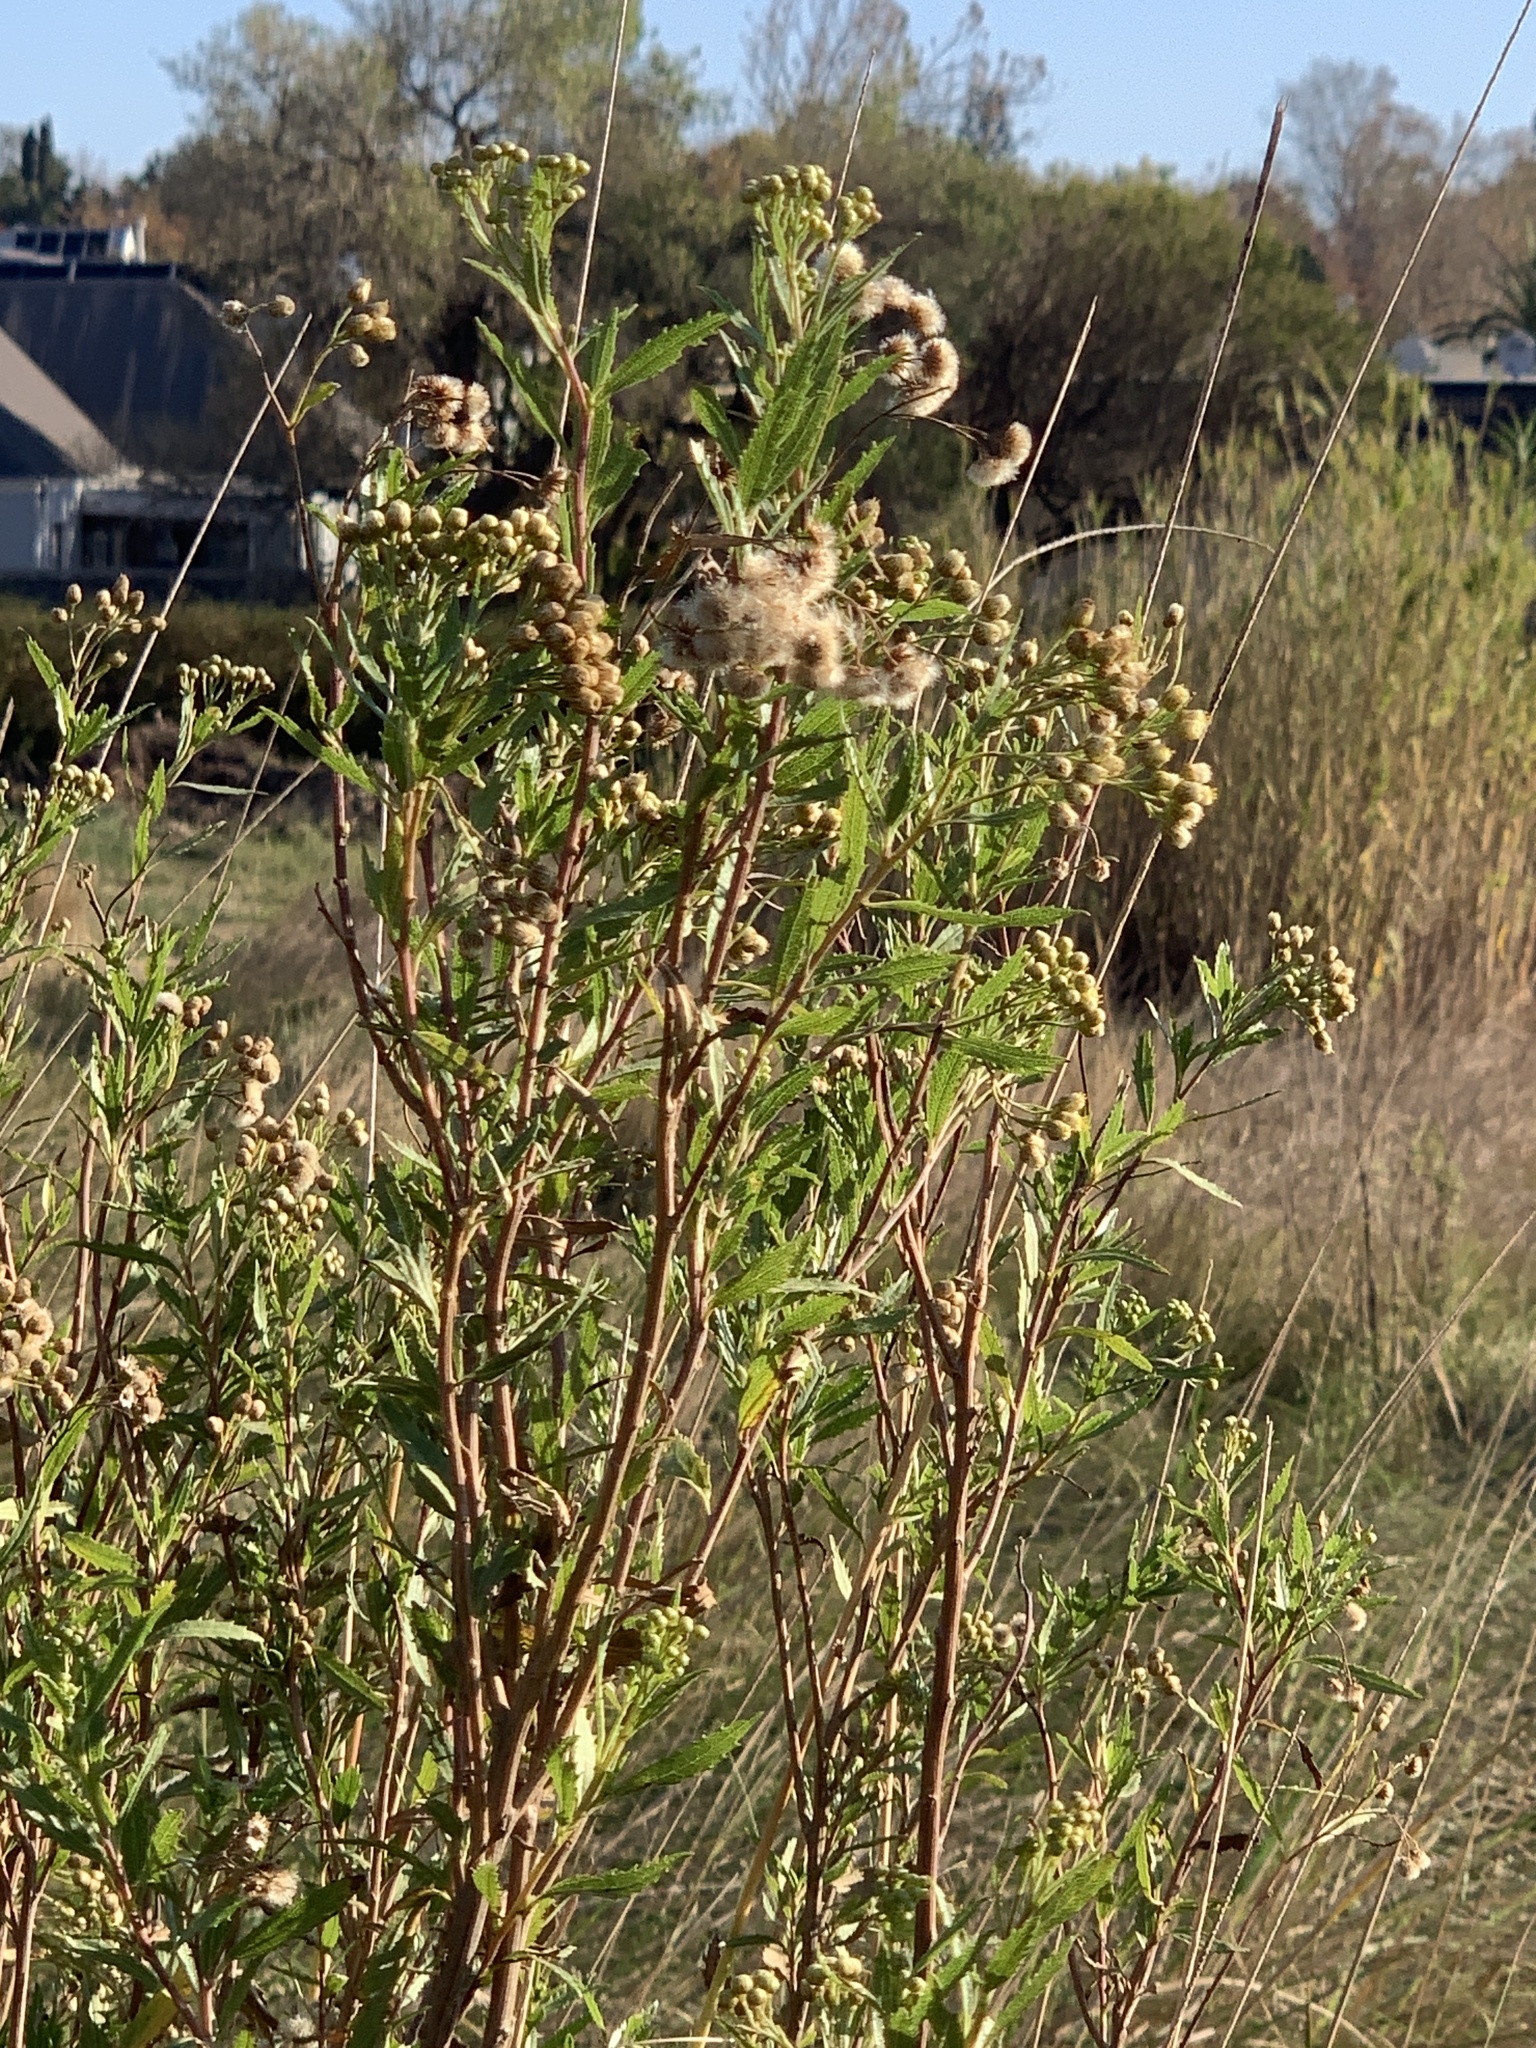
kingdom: Plantae
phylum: Tracheophyta
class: Magnoliopsida
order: Asterales
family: Asteraceae
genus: Nidorella
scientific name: Nidorella ivifolia
